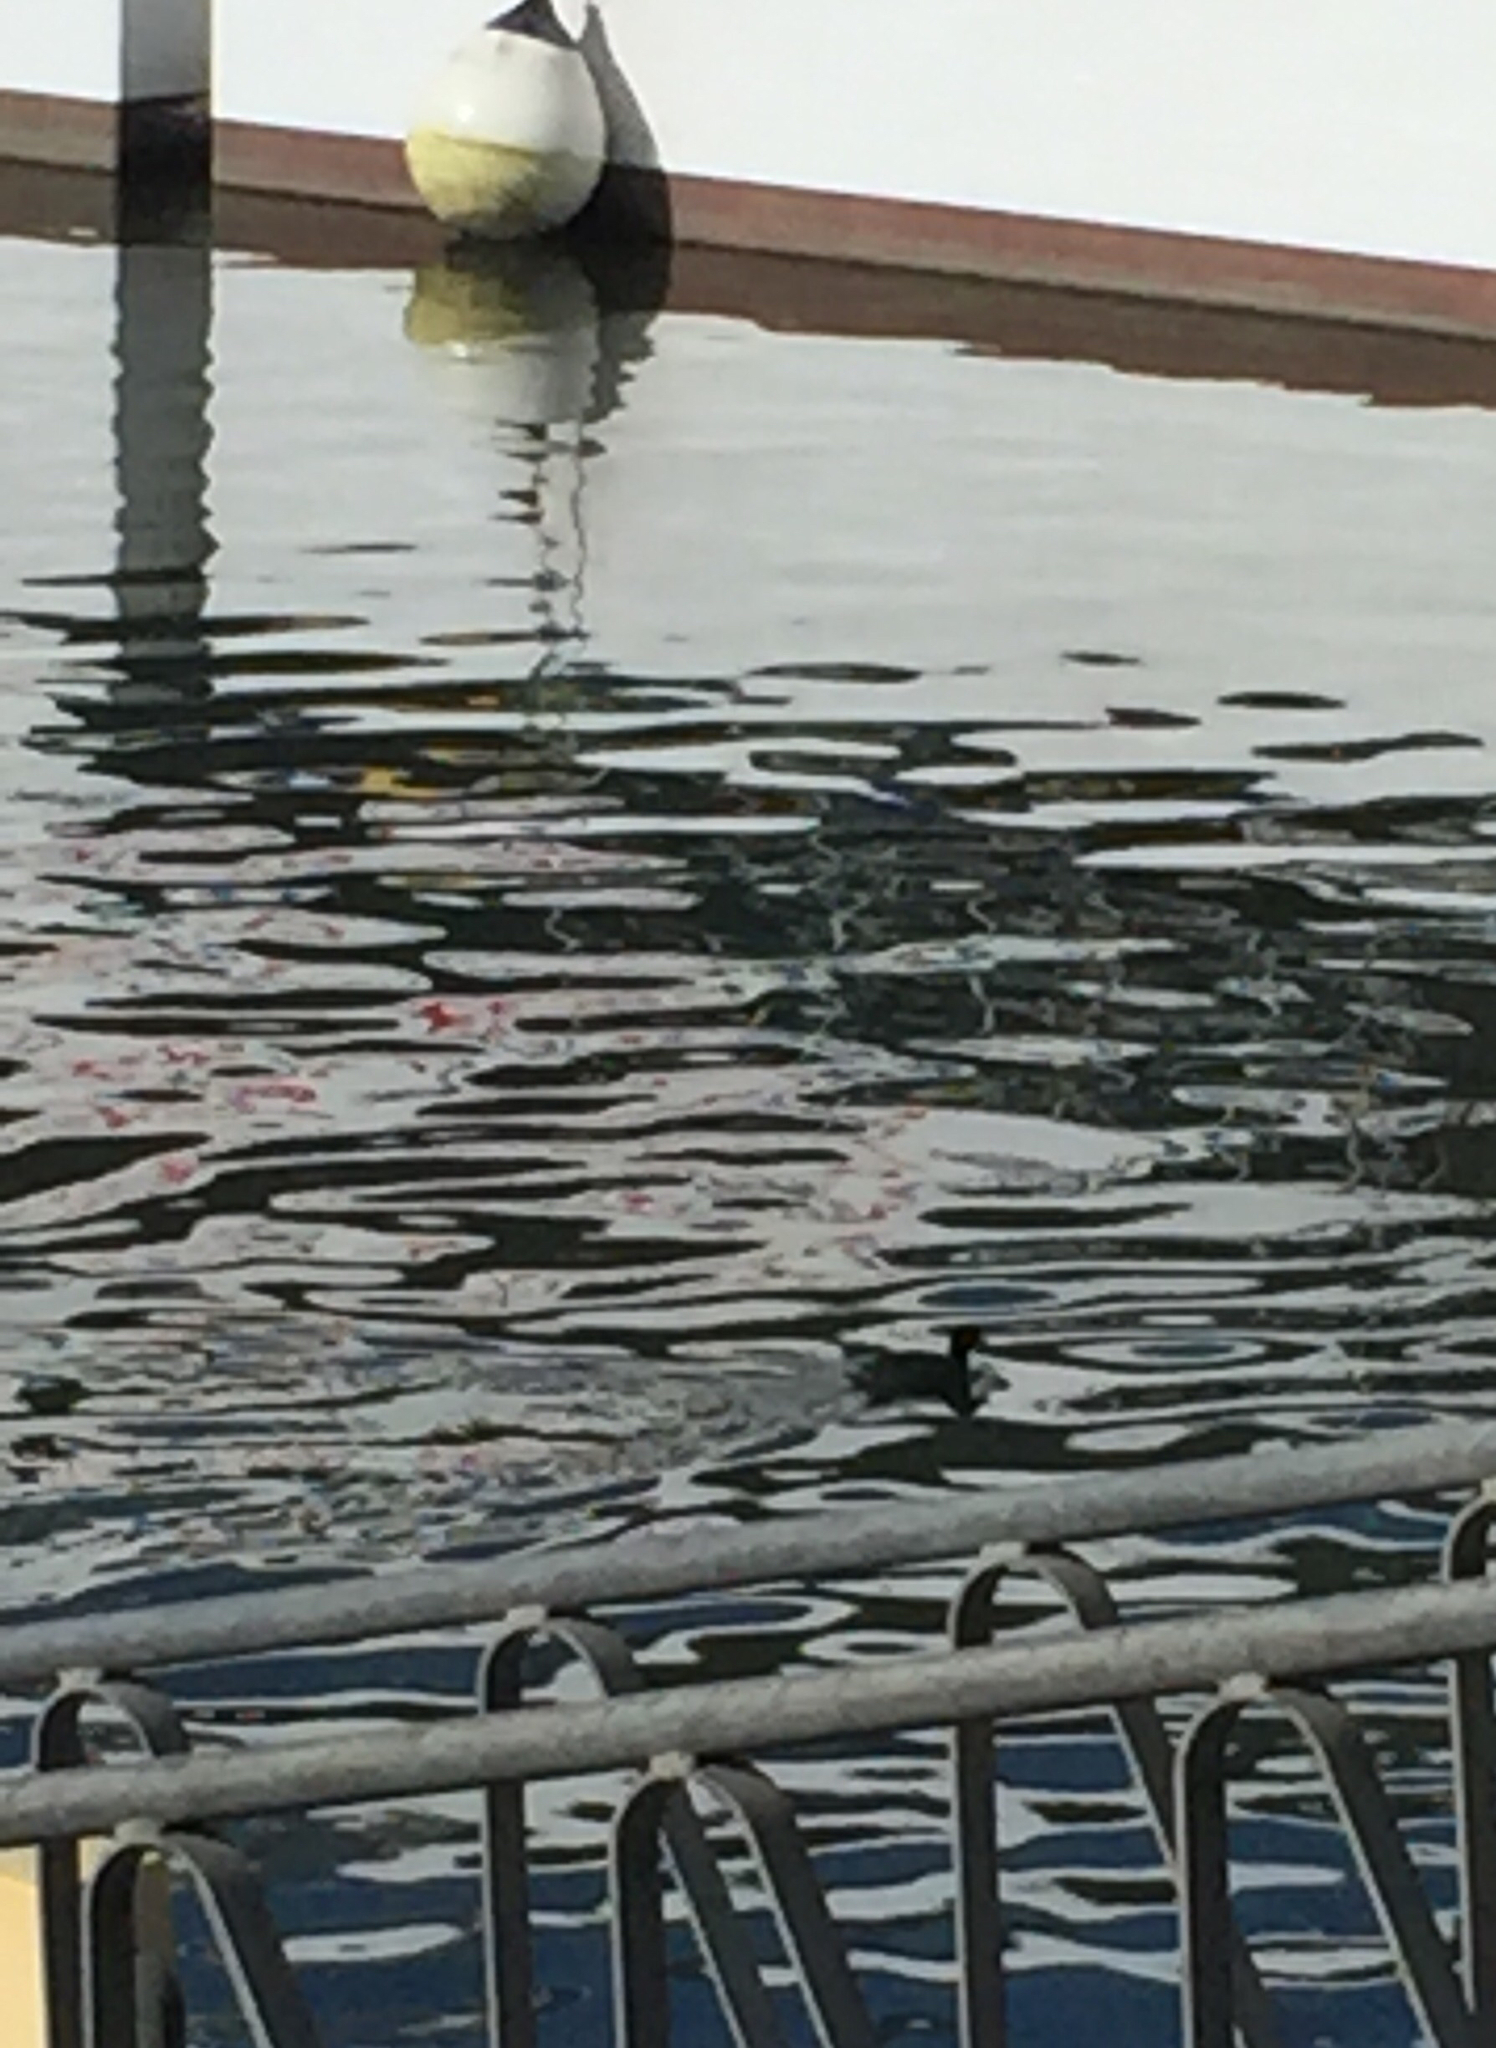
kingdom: Animalia
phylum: Chordata
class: Aves
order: Gruiformes
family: Rallidae
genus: Fulica
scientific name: Fulica americana
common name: American coot
